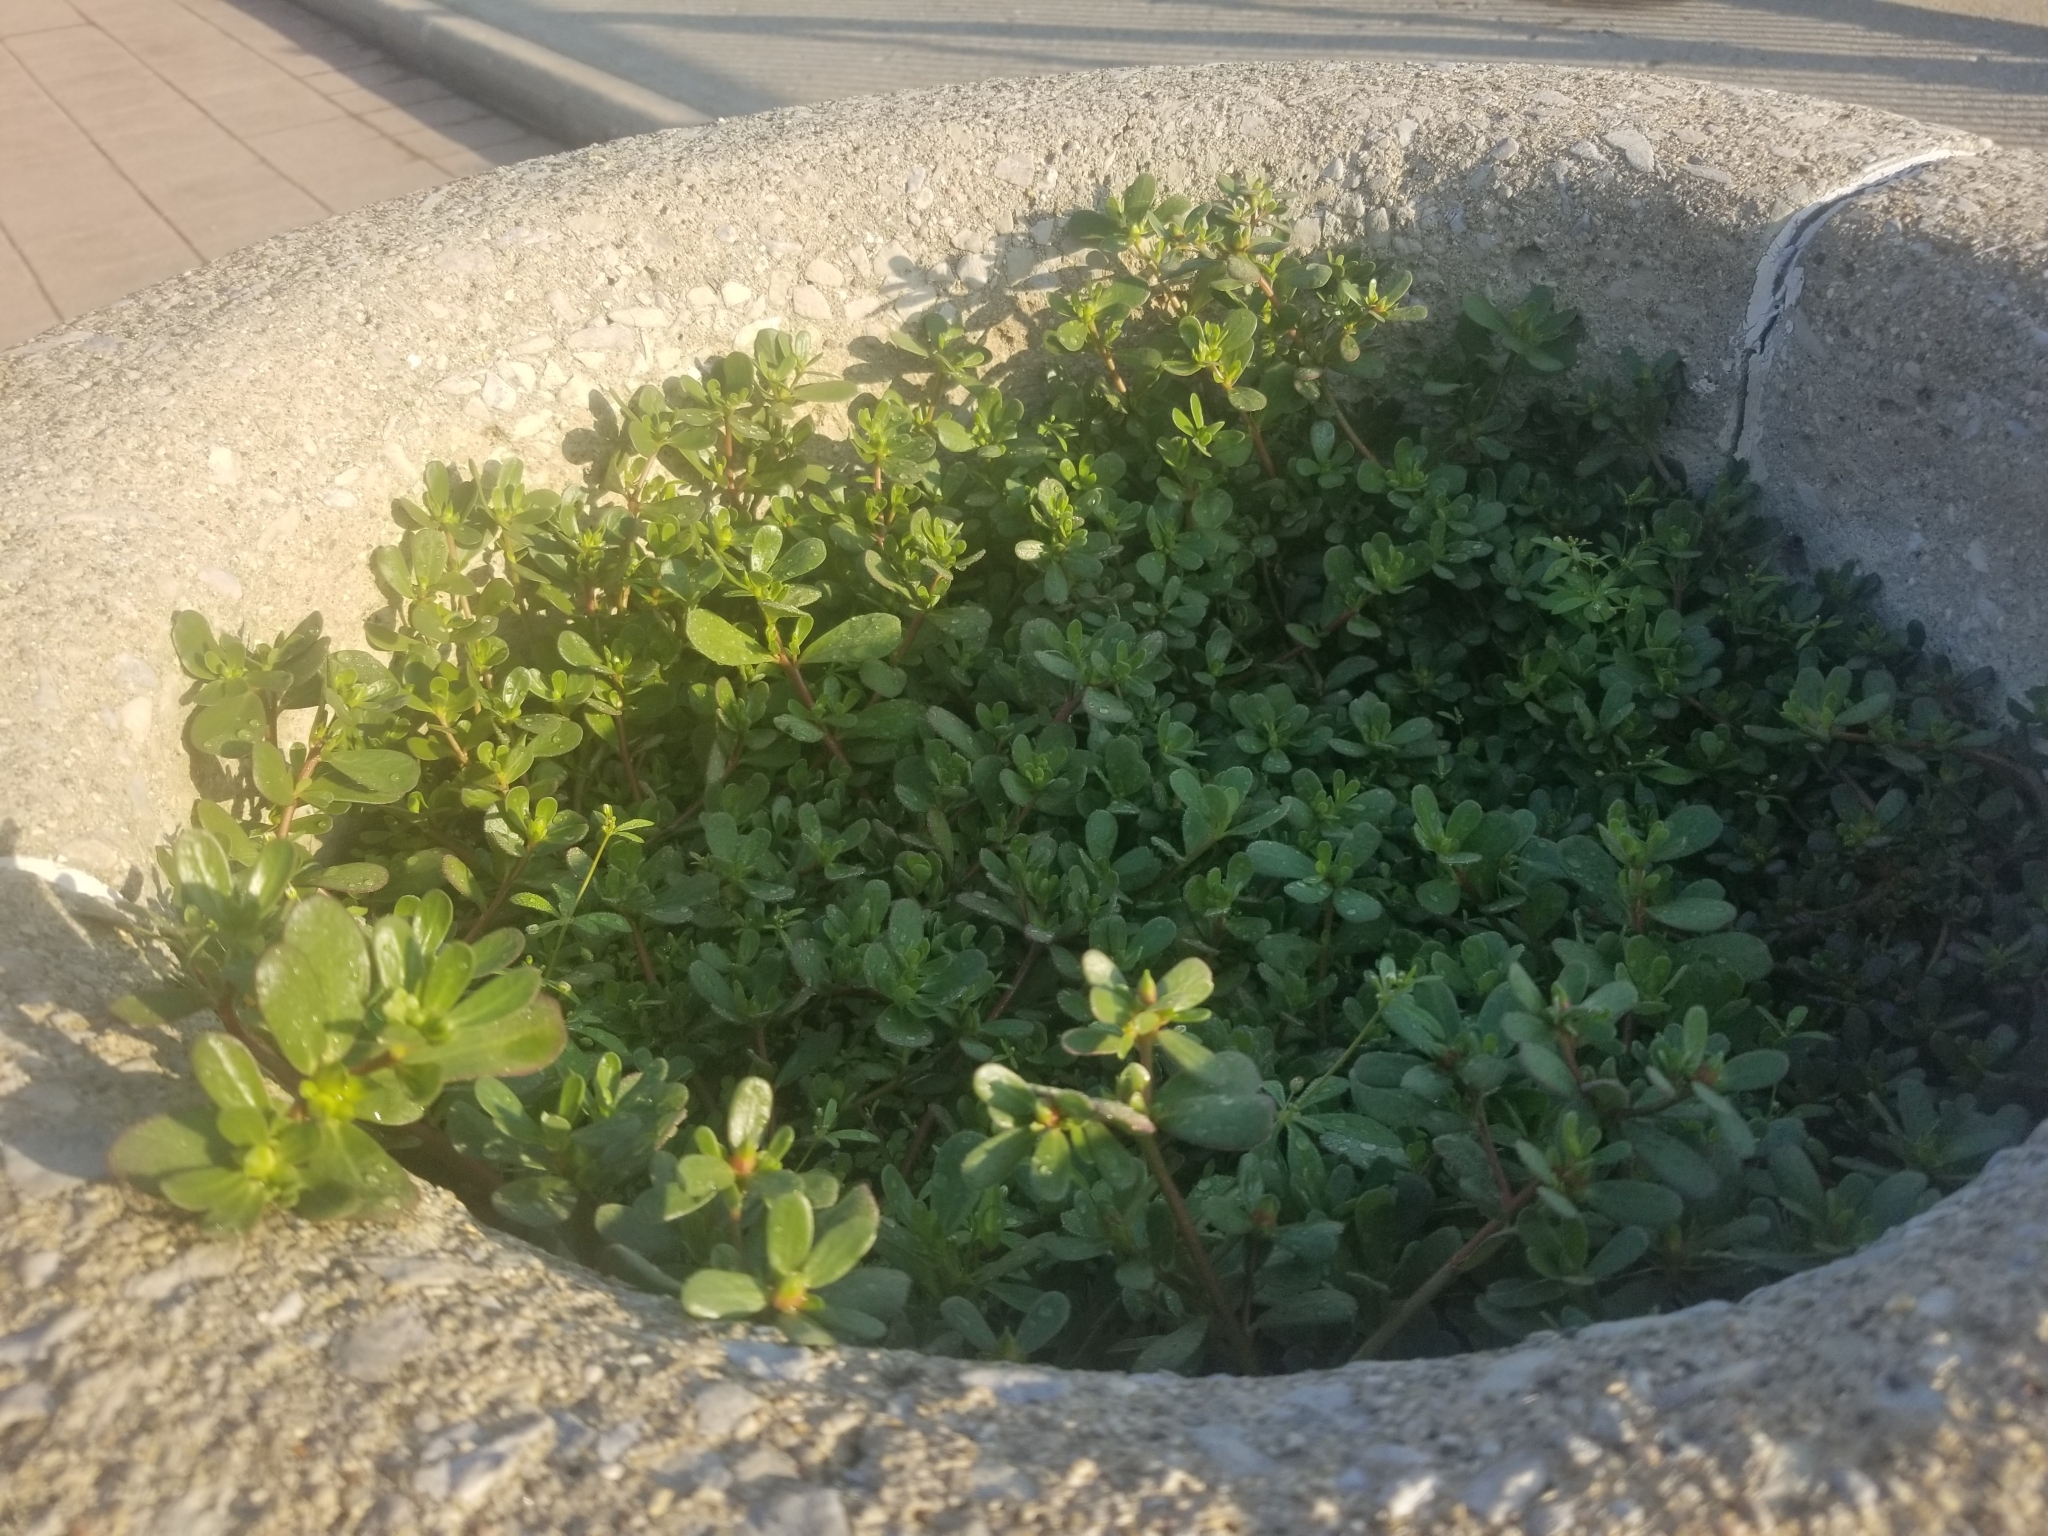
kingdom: Plantae
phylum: Tracheophyta
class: Magnoliopsida
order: Caryophyllales
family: Portulacaceae
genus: Portulaca
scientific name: Portulaca oleracea
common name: Common purslane
